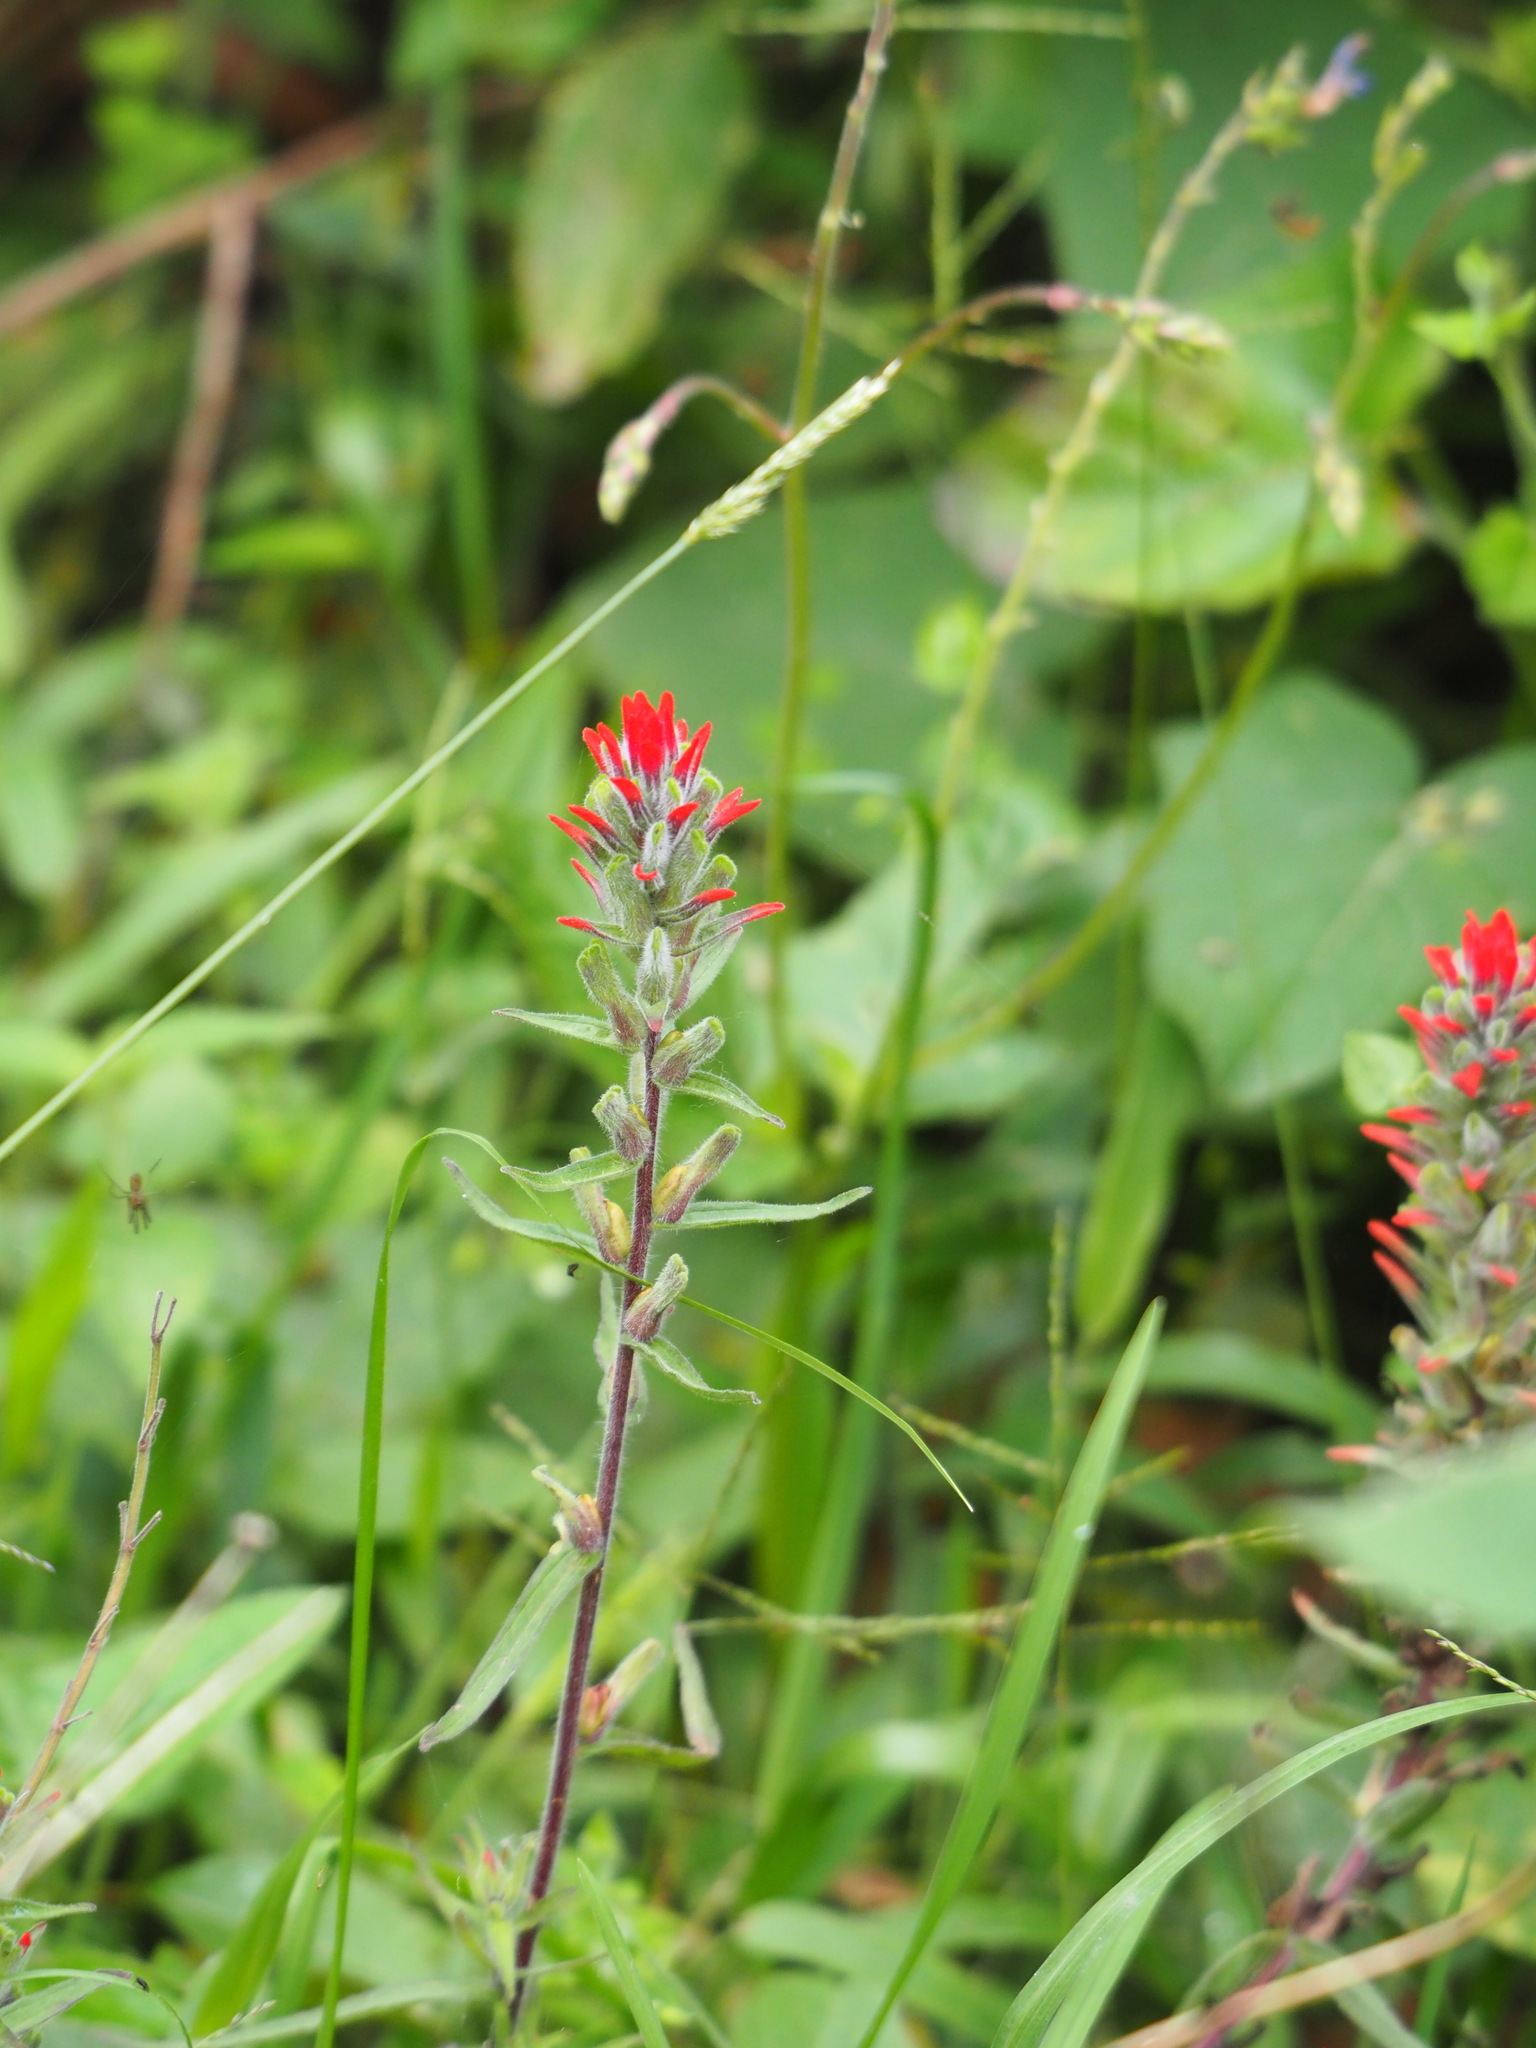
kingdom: Plantae
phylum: Tracheophyta
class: Magnoliopsida
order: Lamiales
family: Orobanchaceae
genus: Castilleja
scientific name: Castilleja arvensis
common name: Indian paintbrush
